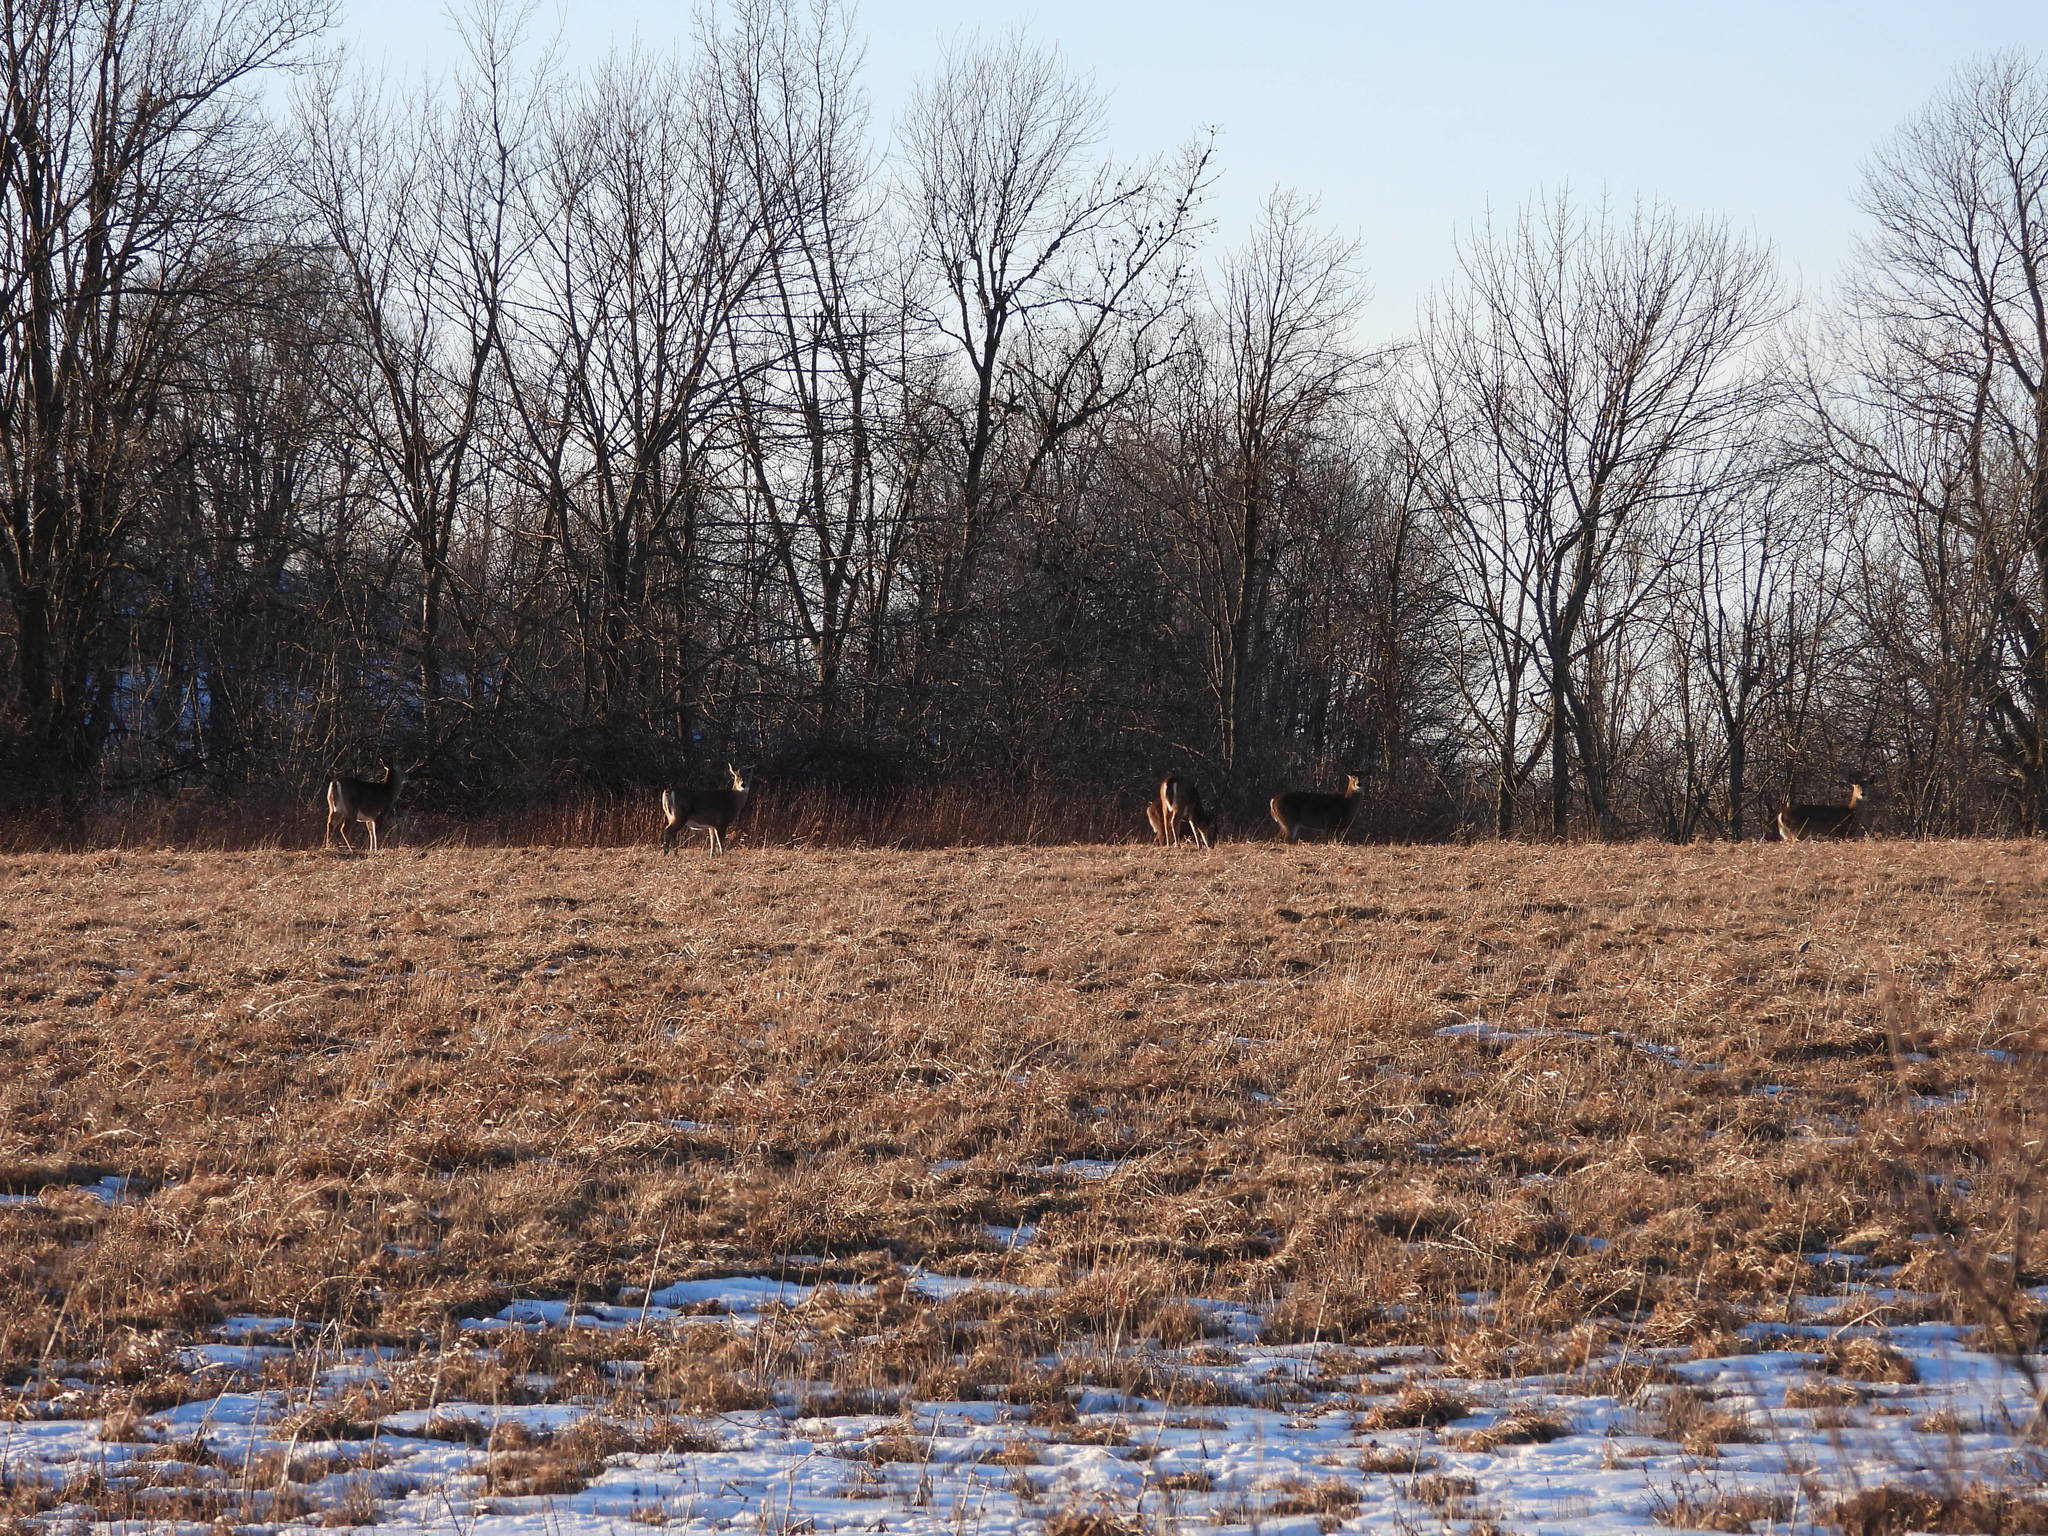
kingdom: Animalia
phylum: Chordata
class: Mammalia
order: Artiodactyla
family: Cervidae
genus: Odocoileus
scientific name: Odocoileus virginianus
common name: White-tailed deer
